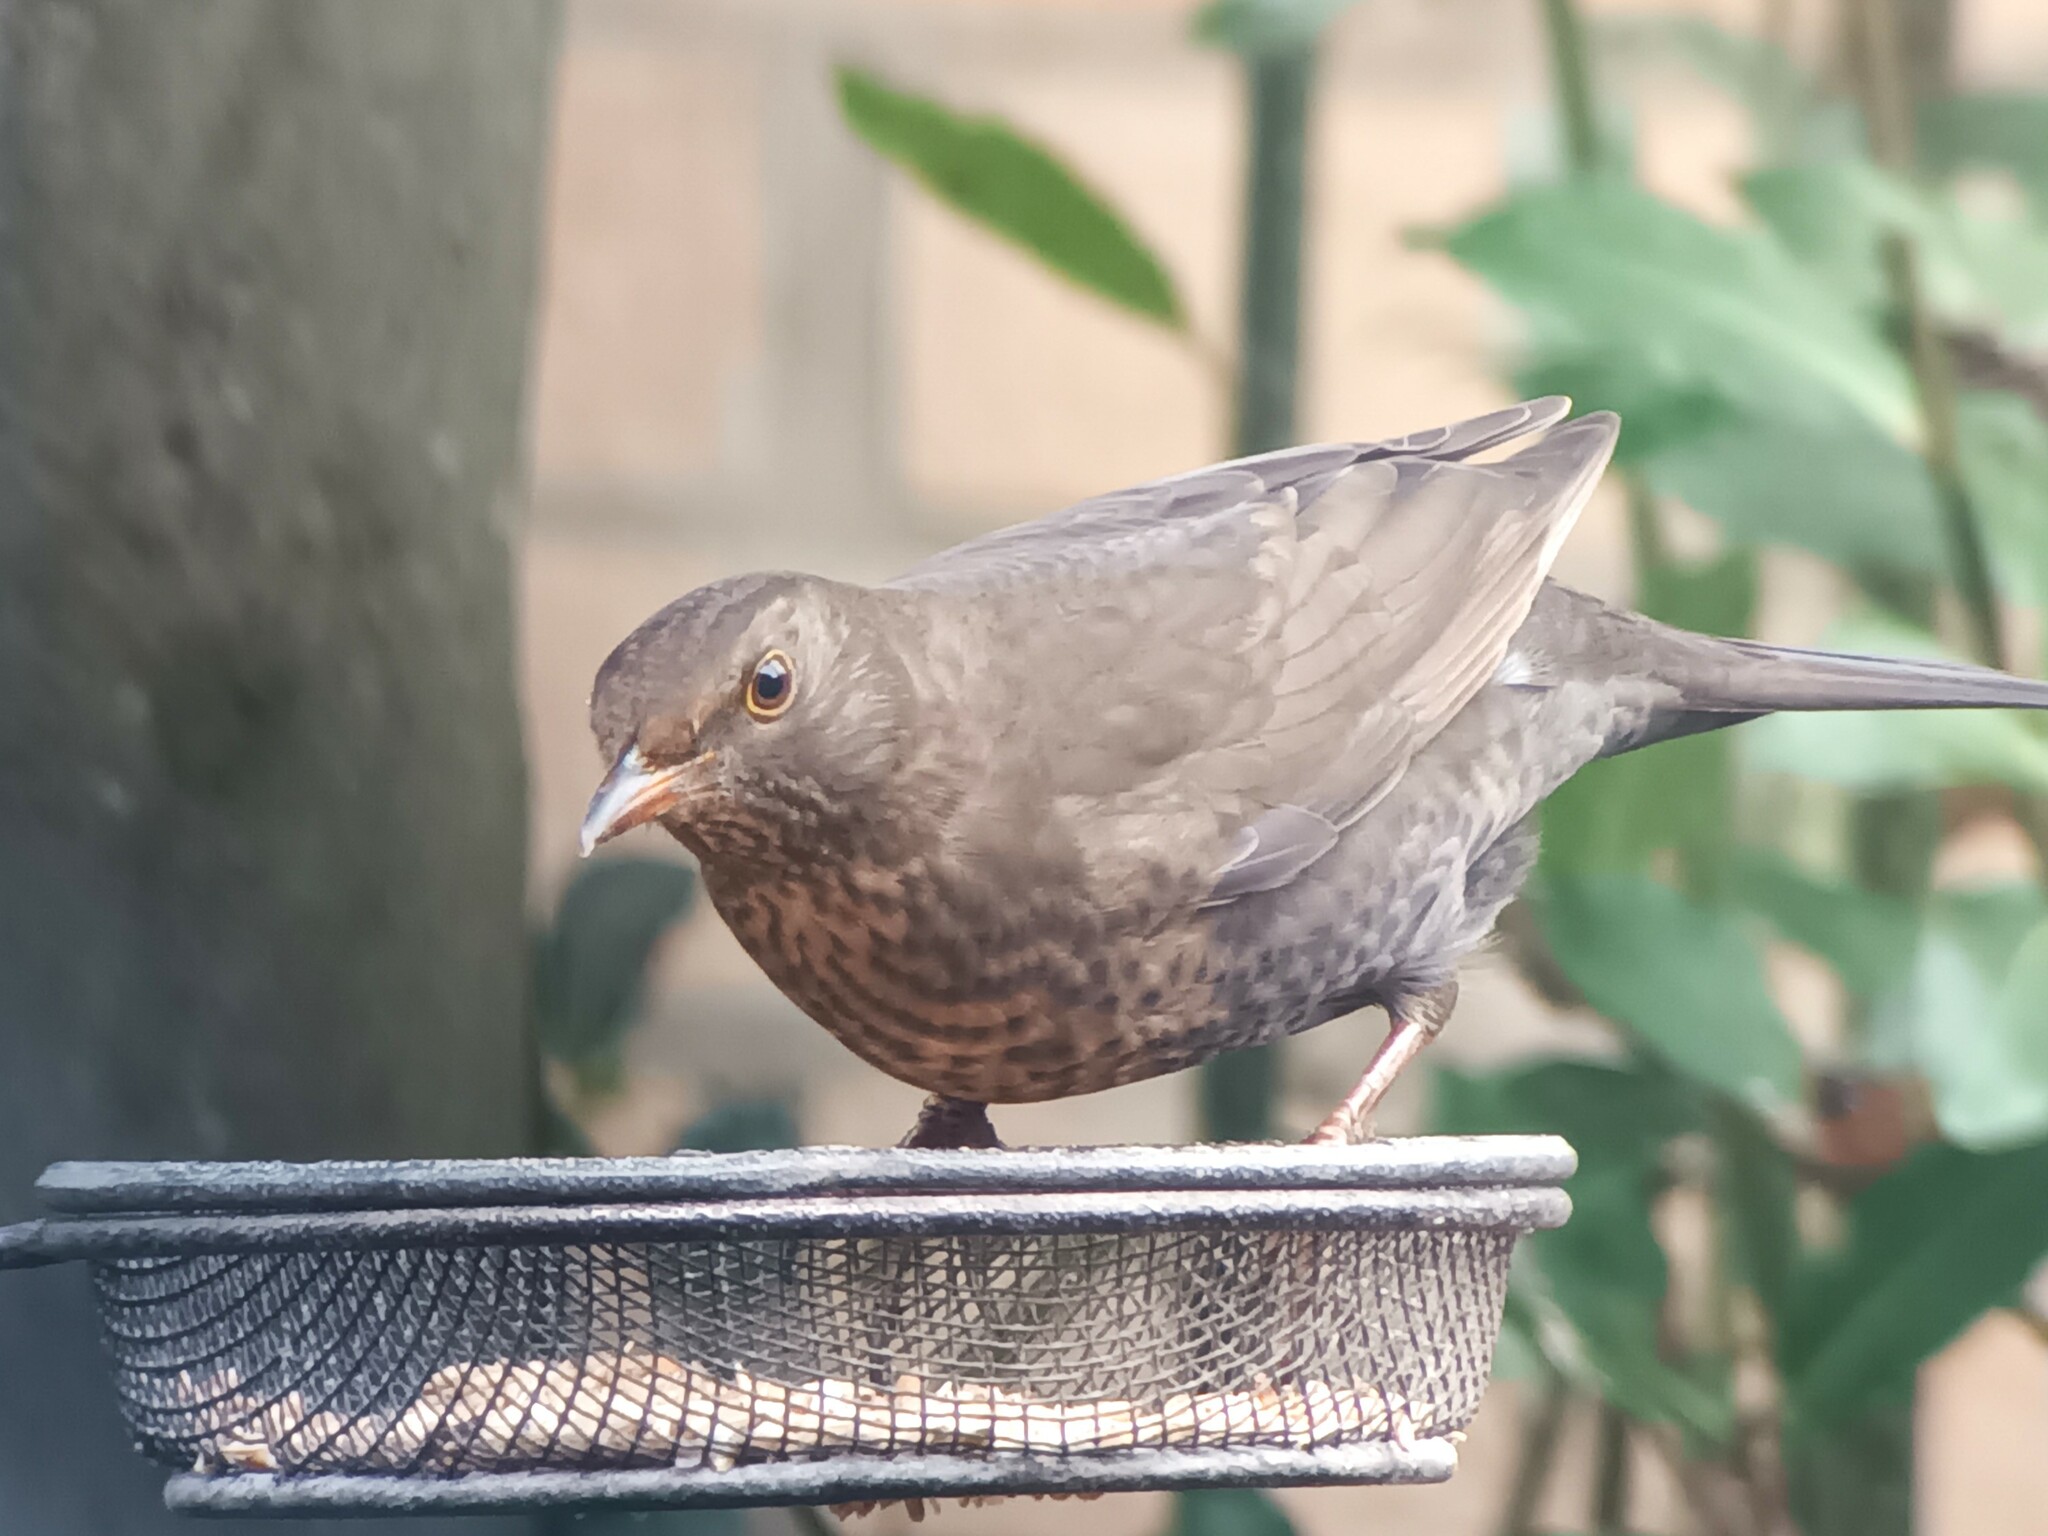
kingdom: Animalia
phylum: Chordata
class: Aves
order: Passeriformes
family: Turdidae
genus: Turdus
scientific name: Turdus merula
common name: Common blackbird
